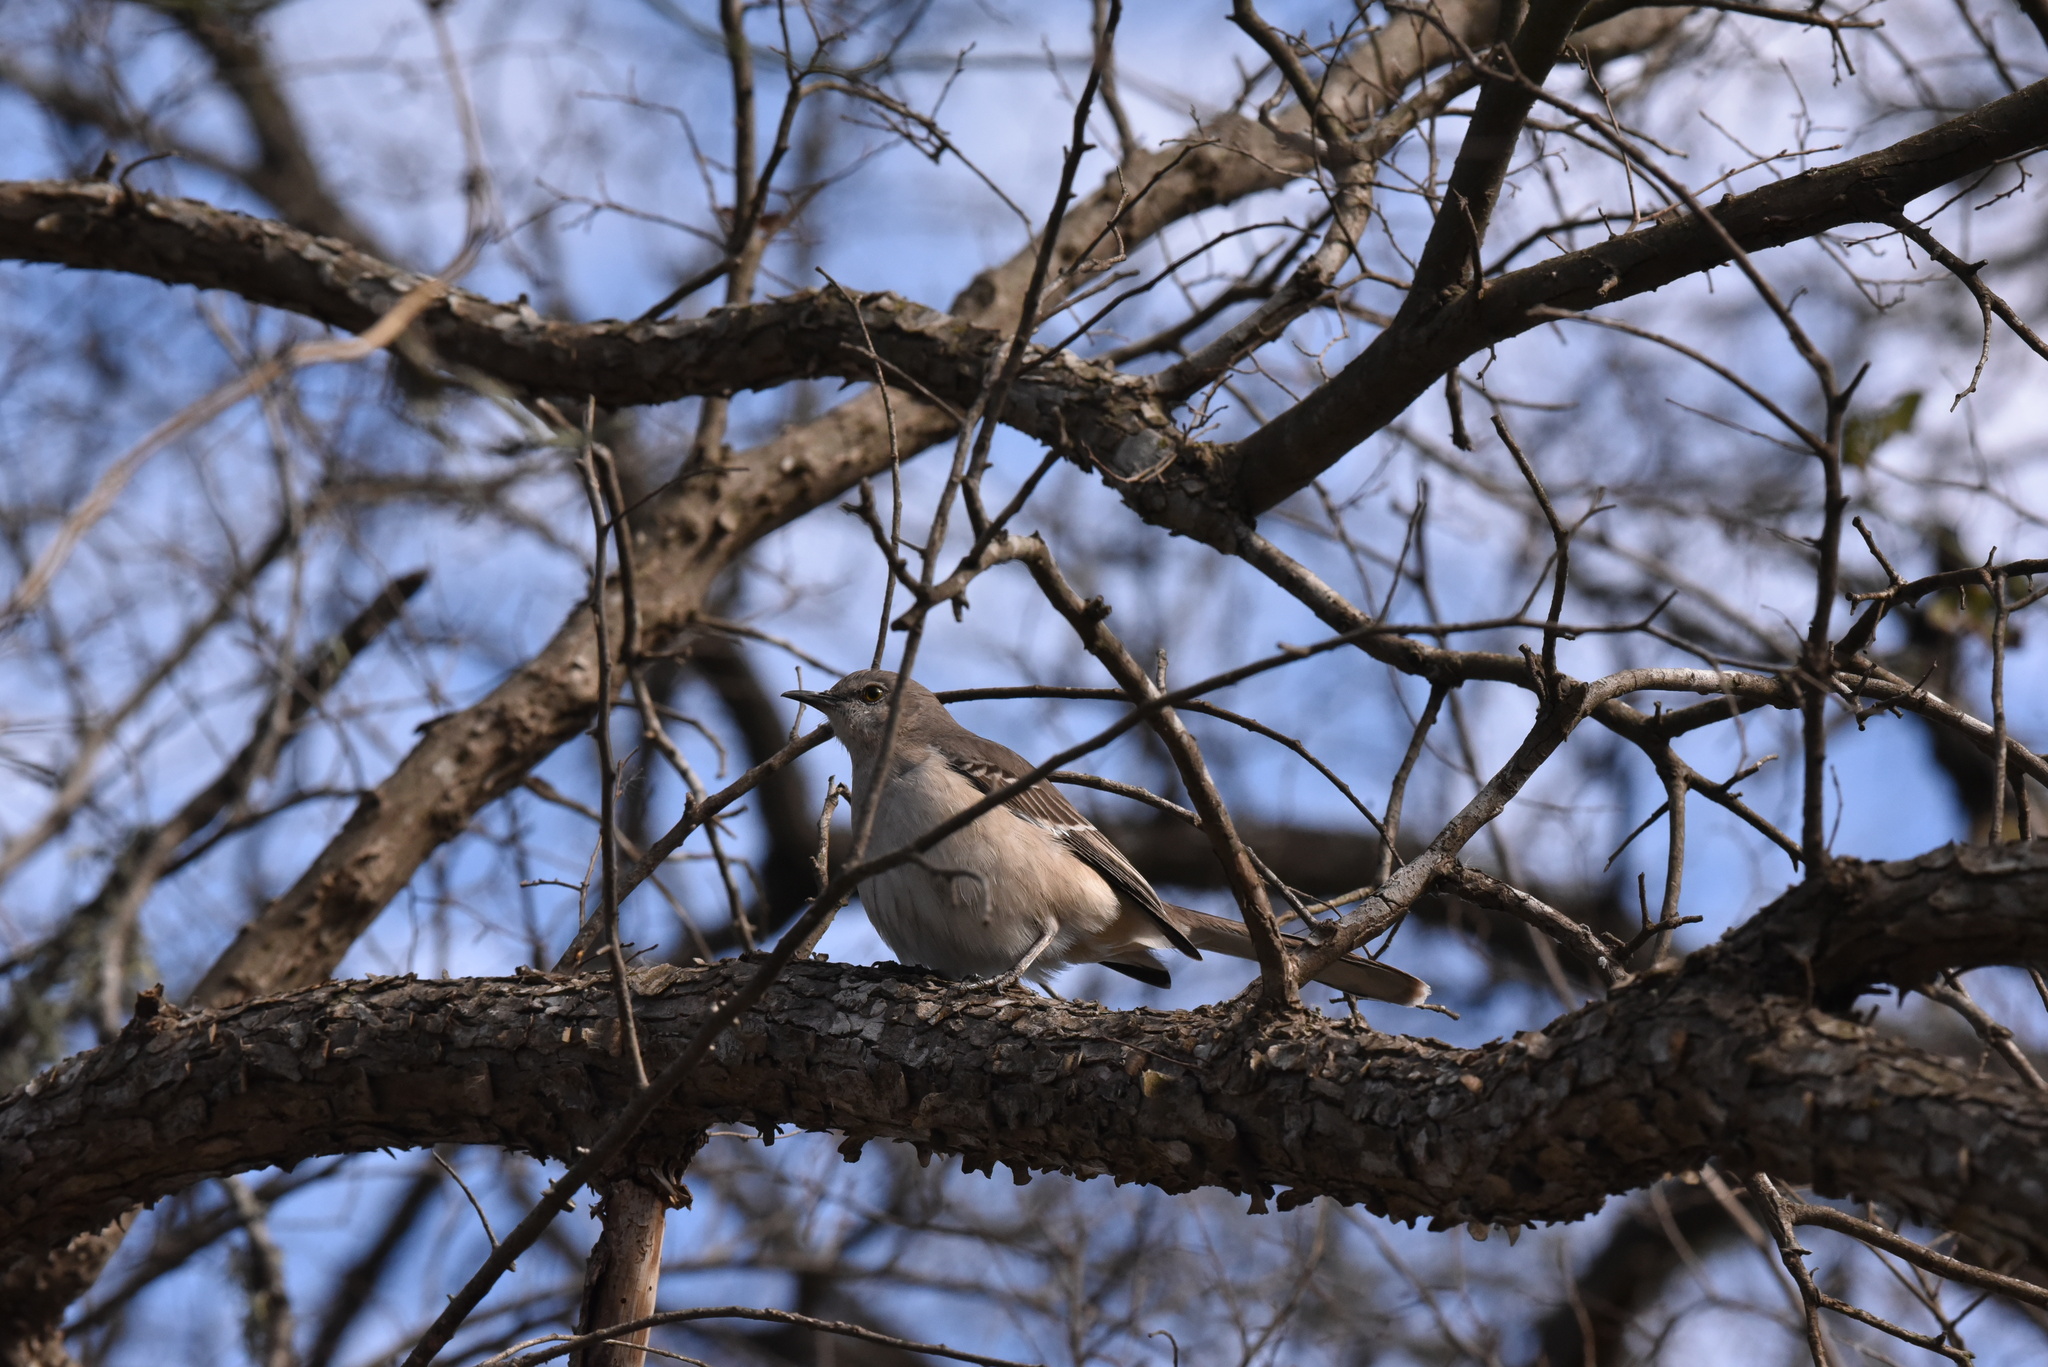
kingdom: Animalia
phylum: Chordata
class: Aves
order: Passeriformes
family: Mimidae
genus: Mimus
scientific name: Mimus polyglottos
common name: Northern mockingbird
